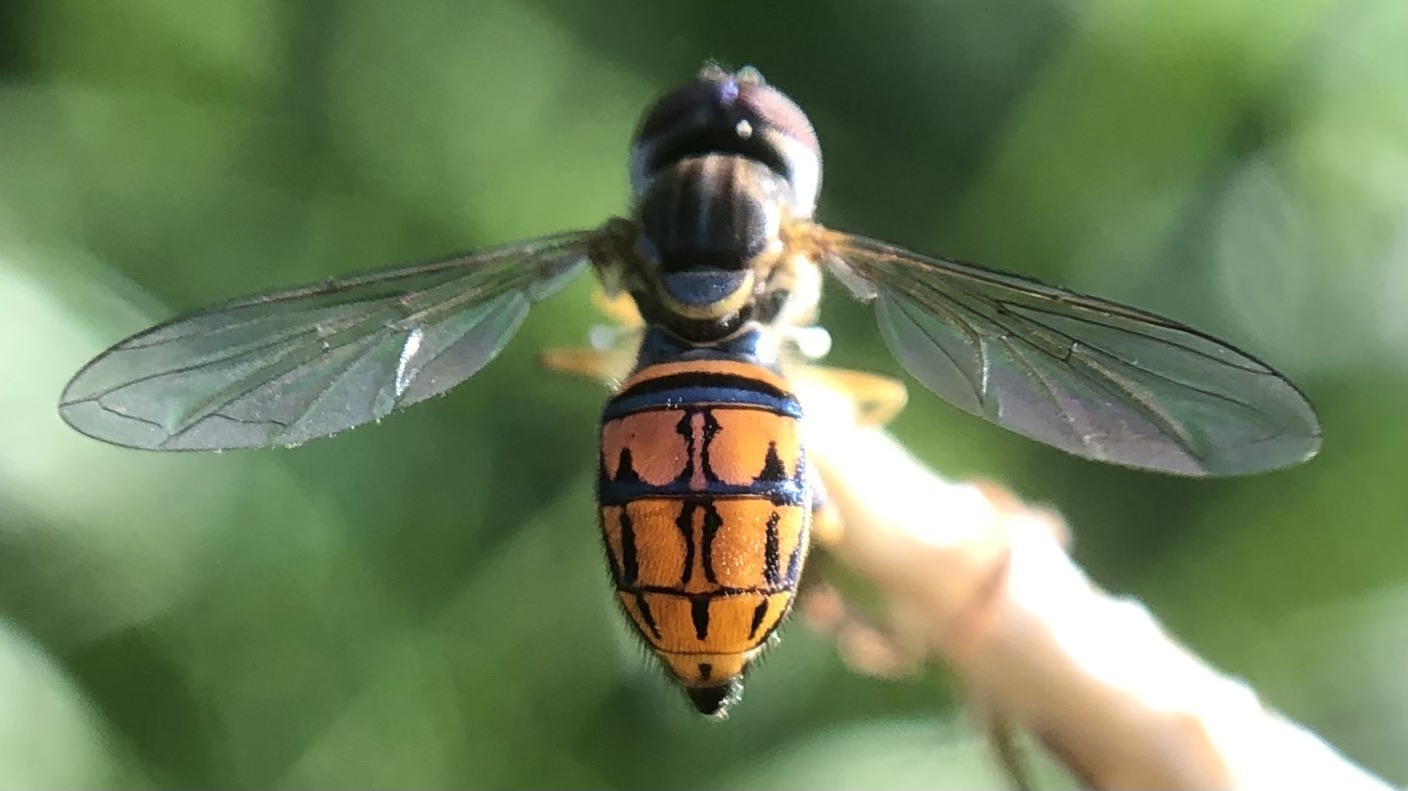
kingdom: Animalia
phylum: Arthropoda
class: Insecta
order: Diptera
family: Syrphidae
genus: Toxomerus
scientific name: Toxomerus boscii
